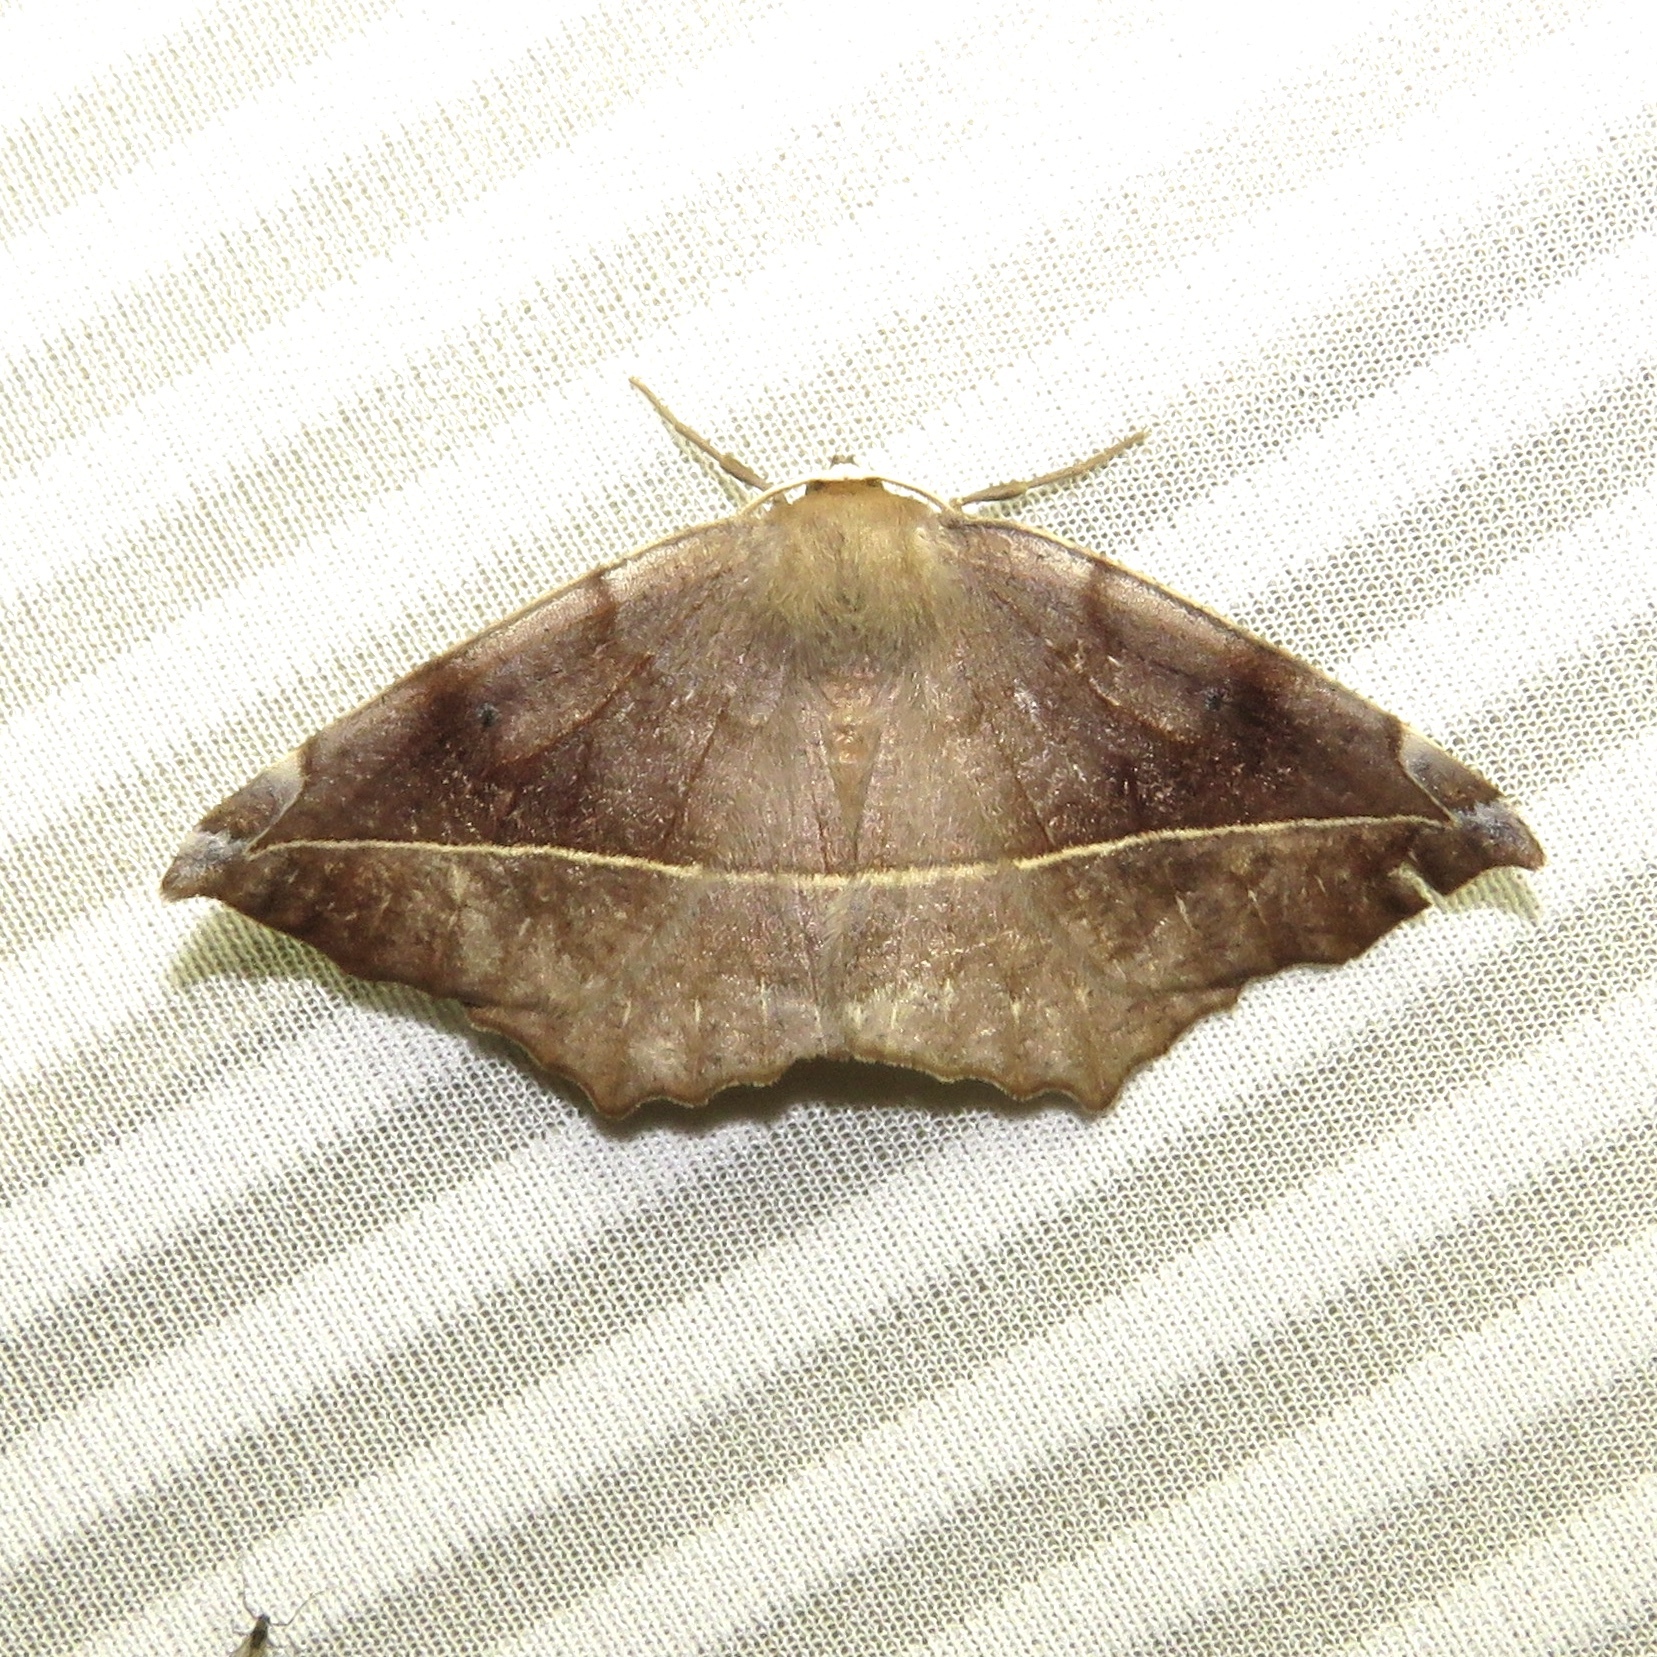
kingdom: Animalia
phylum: Arthropoda
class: Insecta
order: Lepidoptera
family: Geometridae
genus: Eutrapela
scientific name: Eutrapela clemataria
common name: Curved-toothed geometer
